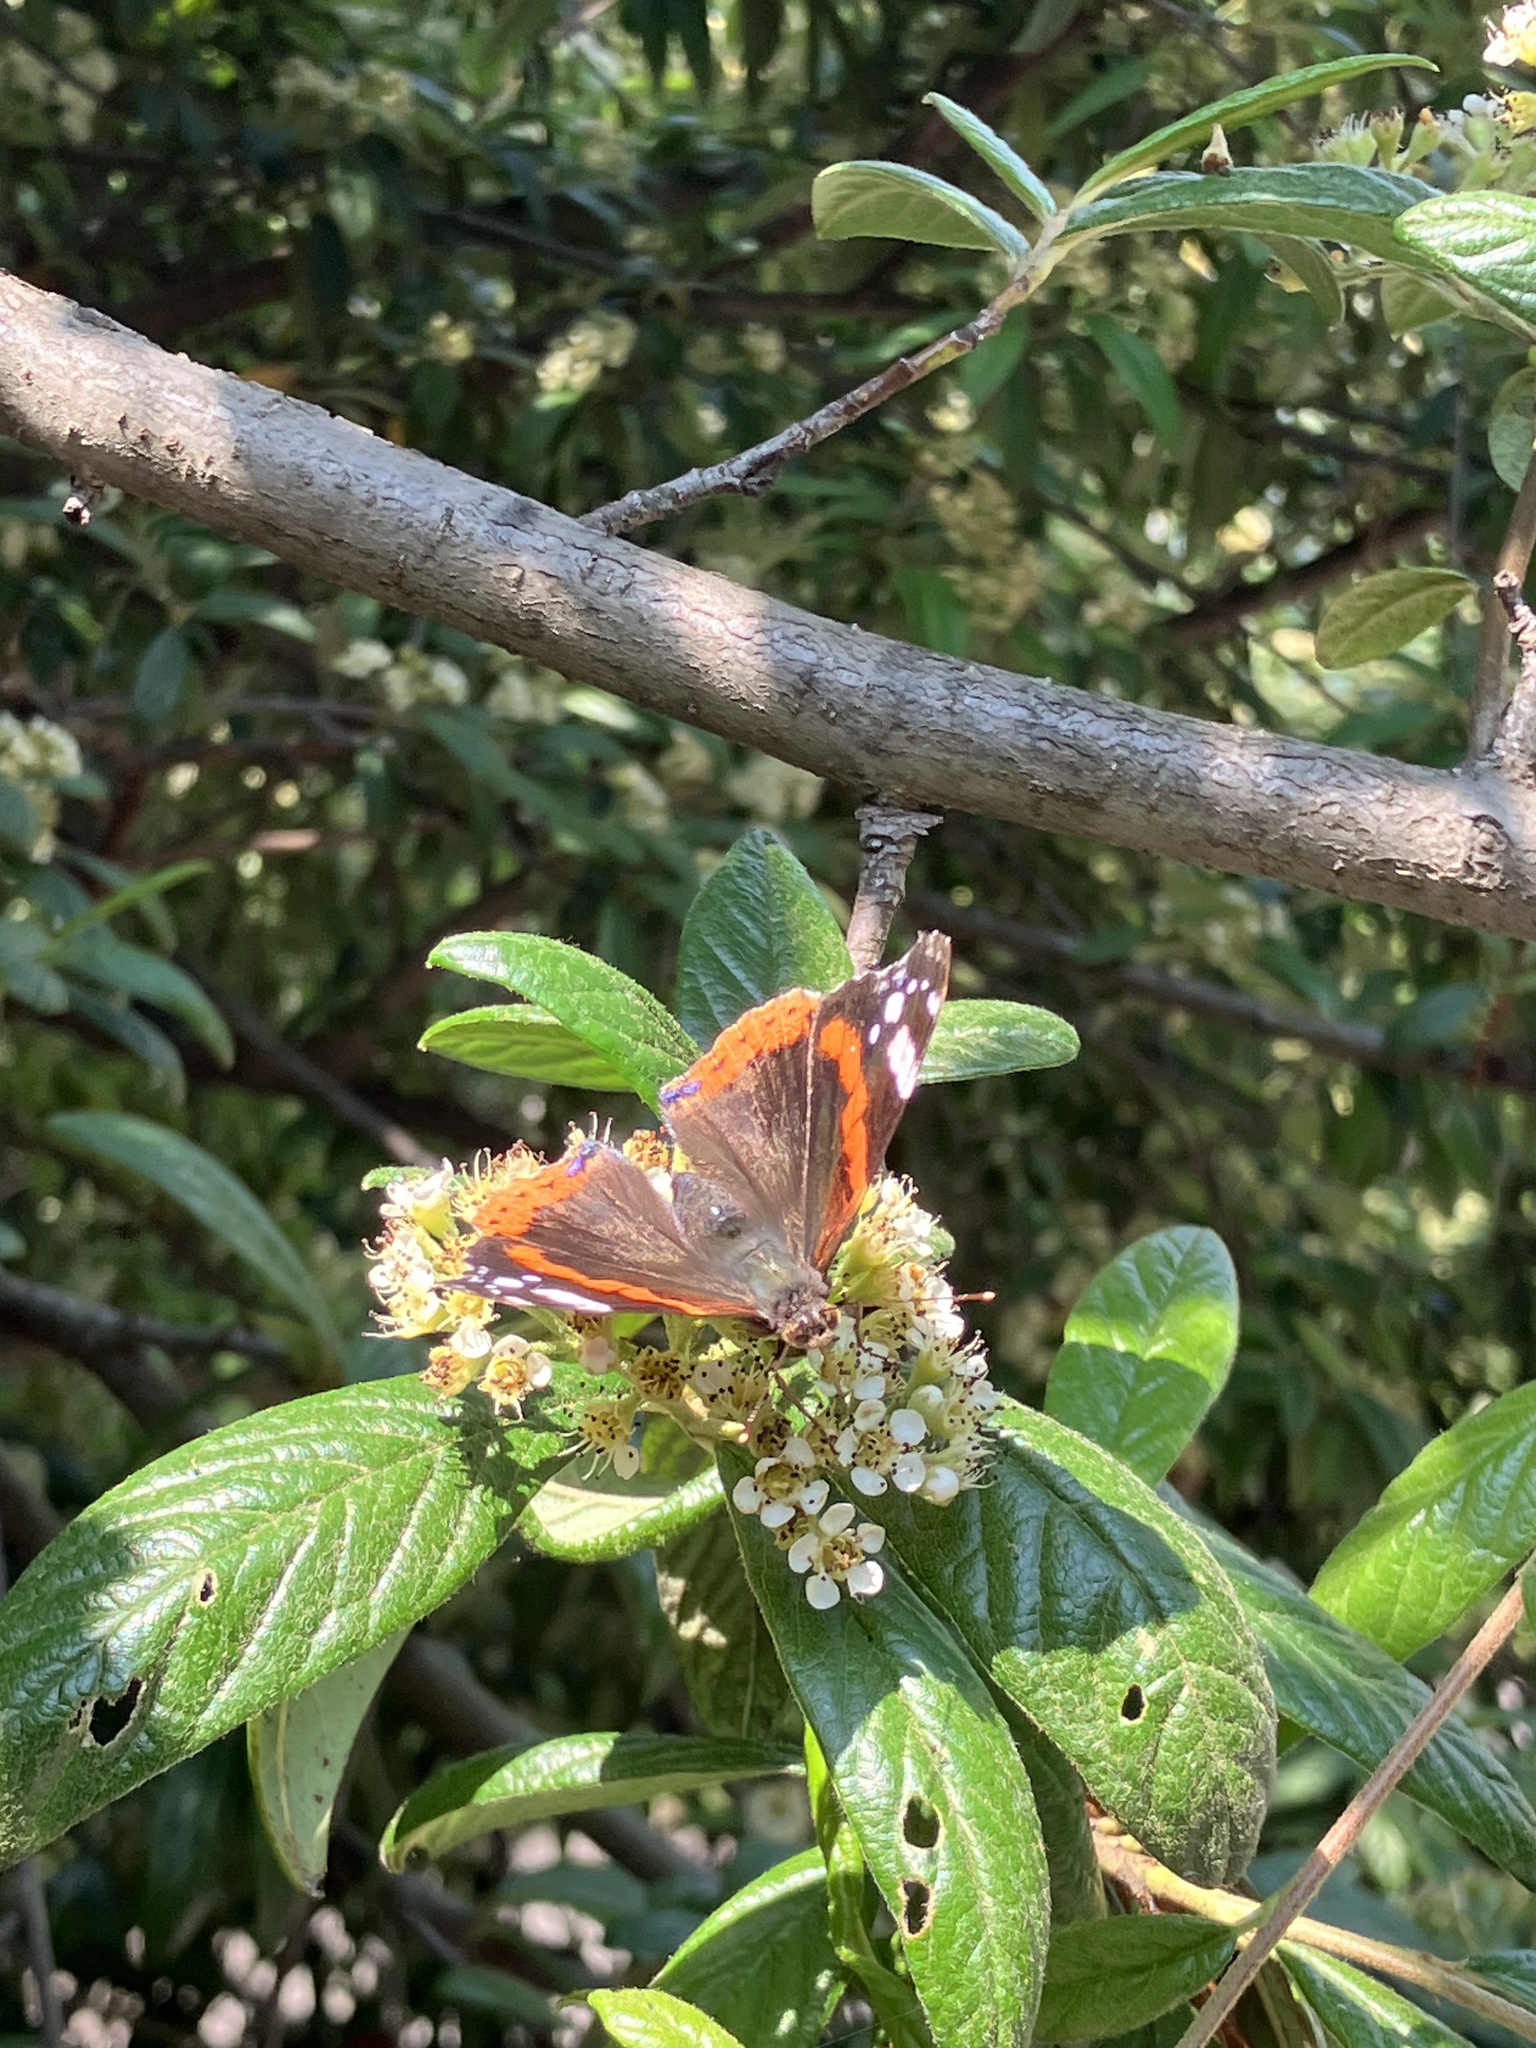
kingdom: Animalia
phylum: Arthropoda
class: Insecta
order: Lepidoptera
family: Nymphalidae
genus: Vanessa
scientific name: Vanessa atalanta
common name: Red admiral
